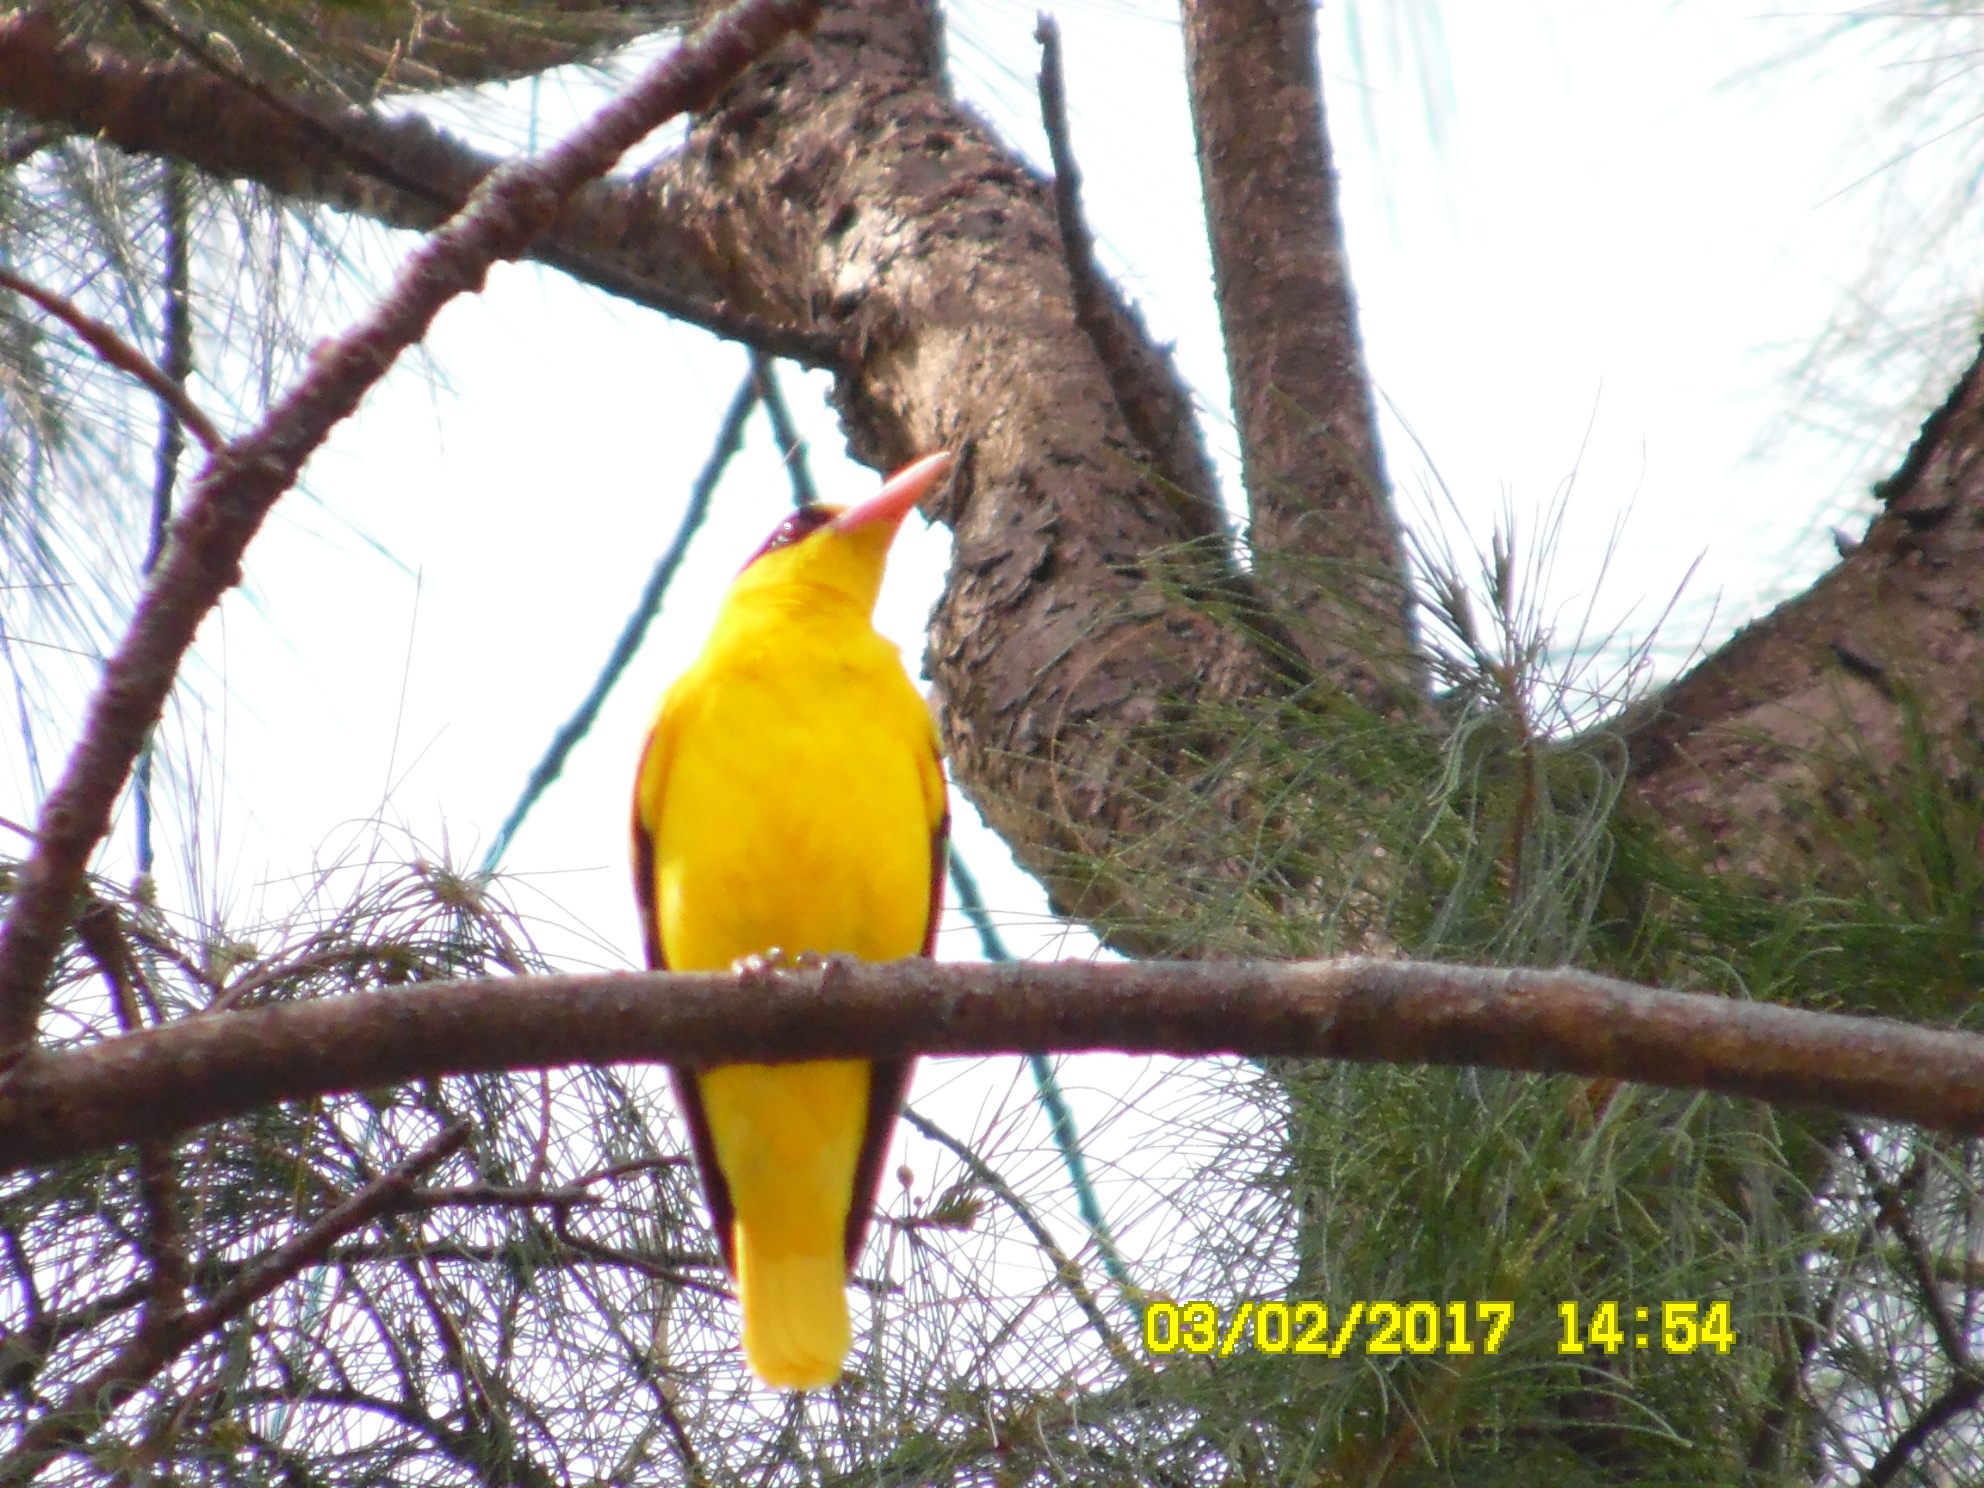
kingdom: Animalia
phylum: Chordata
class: Aves
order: Passeriformes
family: Oriolidae
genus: Oriolus
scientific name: Oriolus chinensis
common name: Black-naped oriole
